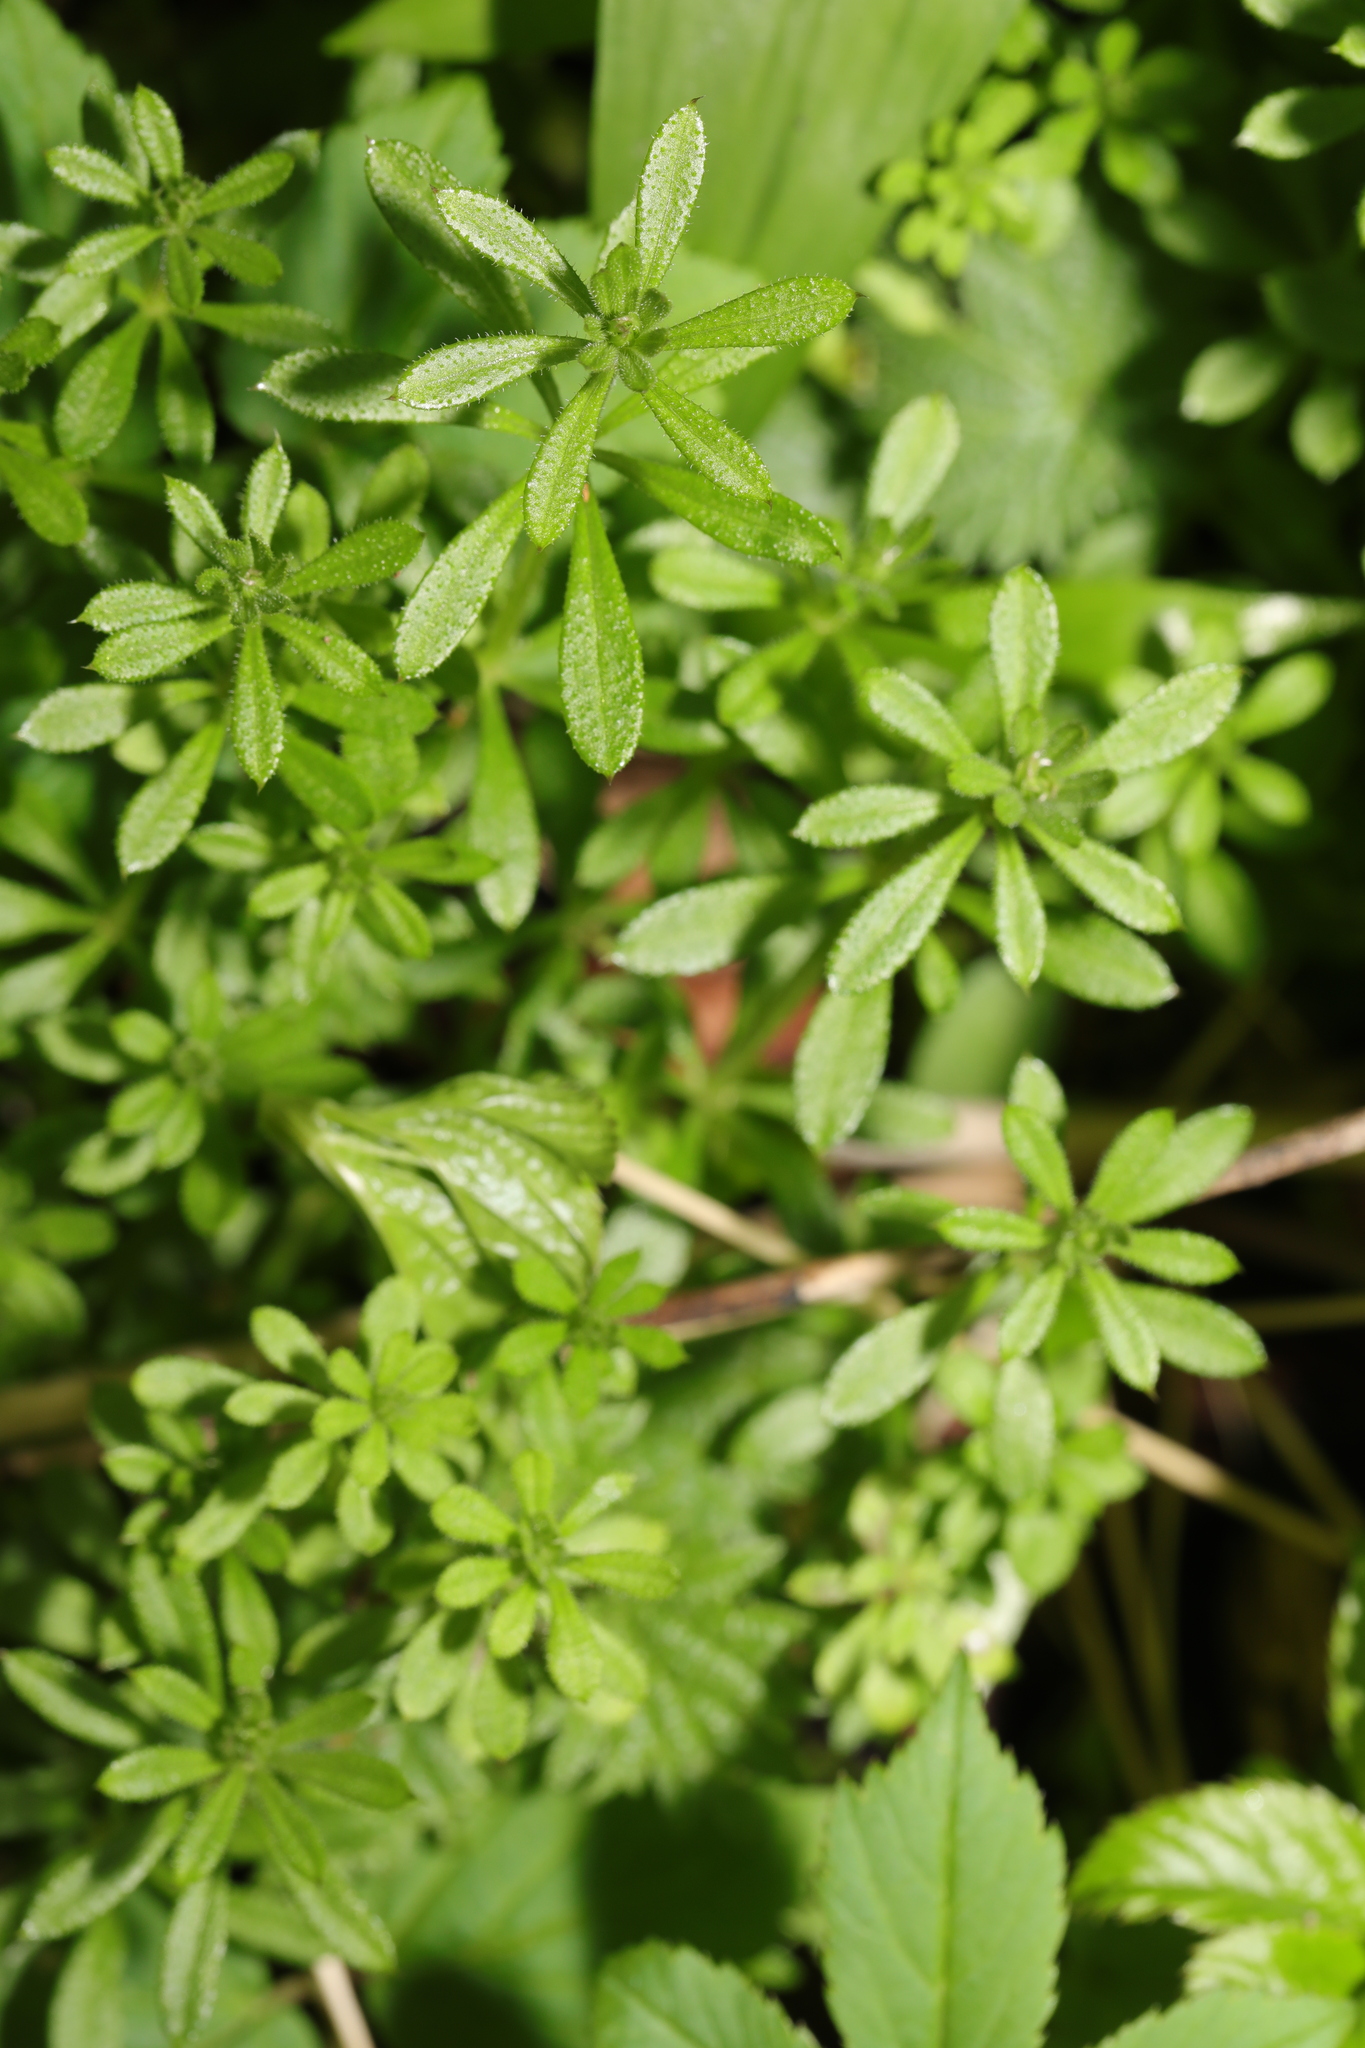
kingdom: Plantae
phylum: Tracheophyta
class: Magnoliopsida
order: Gentianales
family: Rubiaceae
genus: Galium
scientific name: Galium aparine
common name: Cleavers
